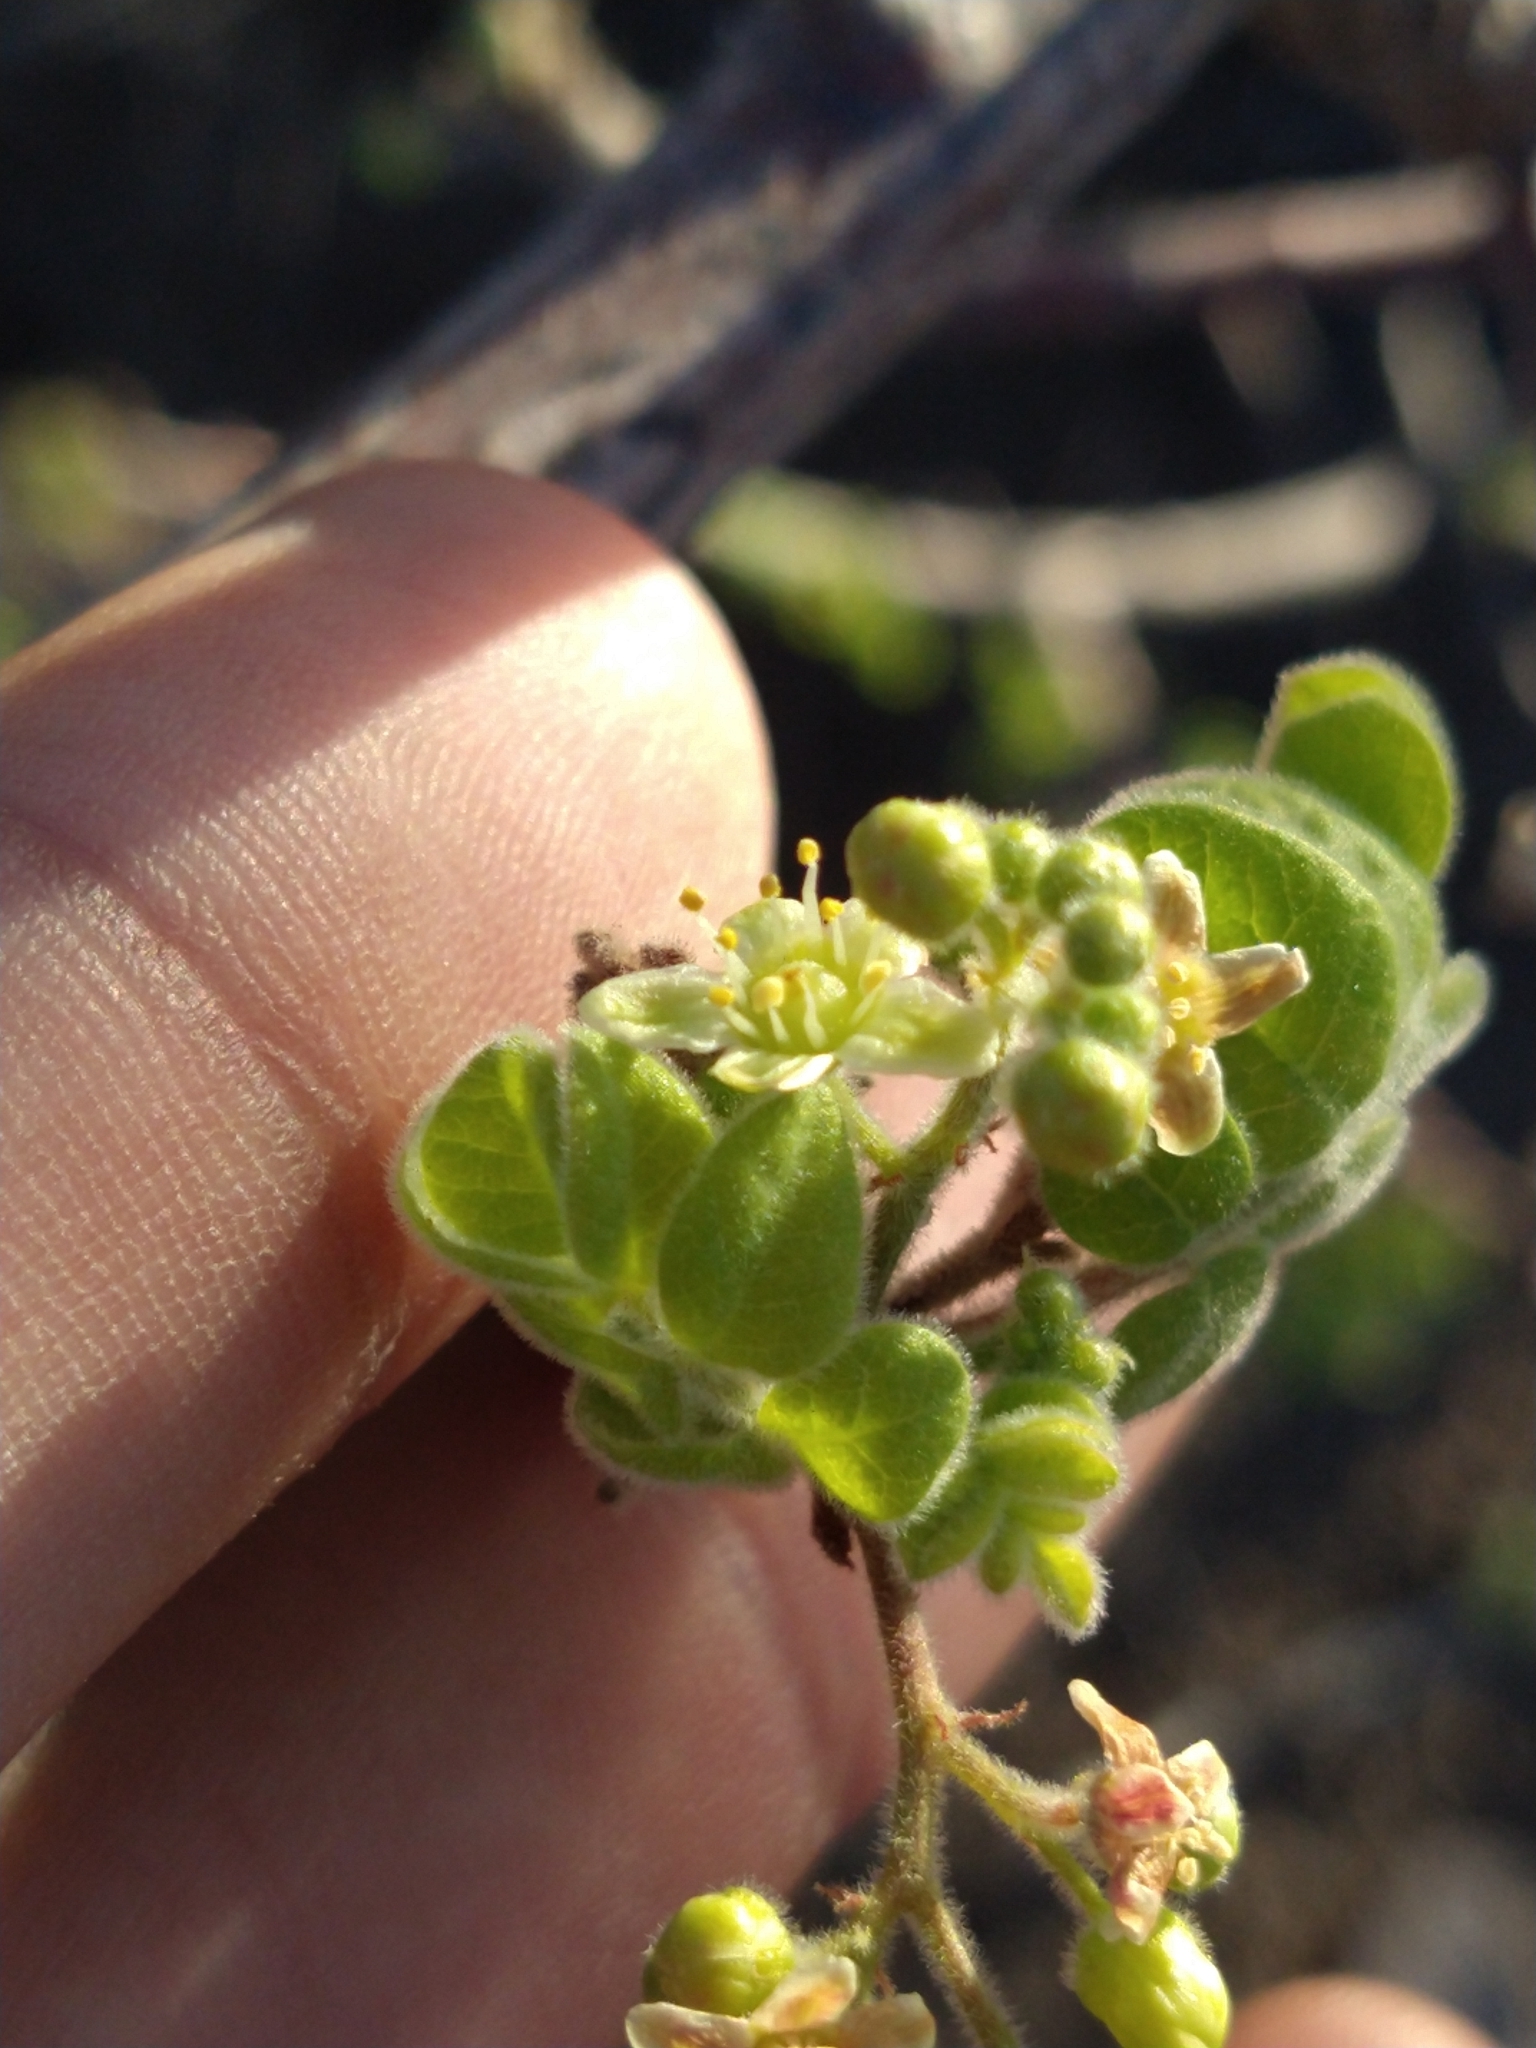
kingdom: Plantae
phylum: Tracheophyta
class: Magnoliopsida
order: Sapindales
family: Anacardiaceae
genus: Cyrtocarpa
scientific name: Cyrtocarpa edulis
